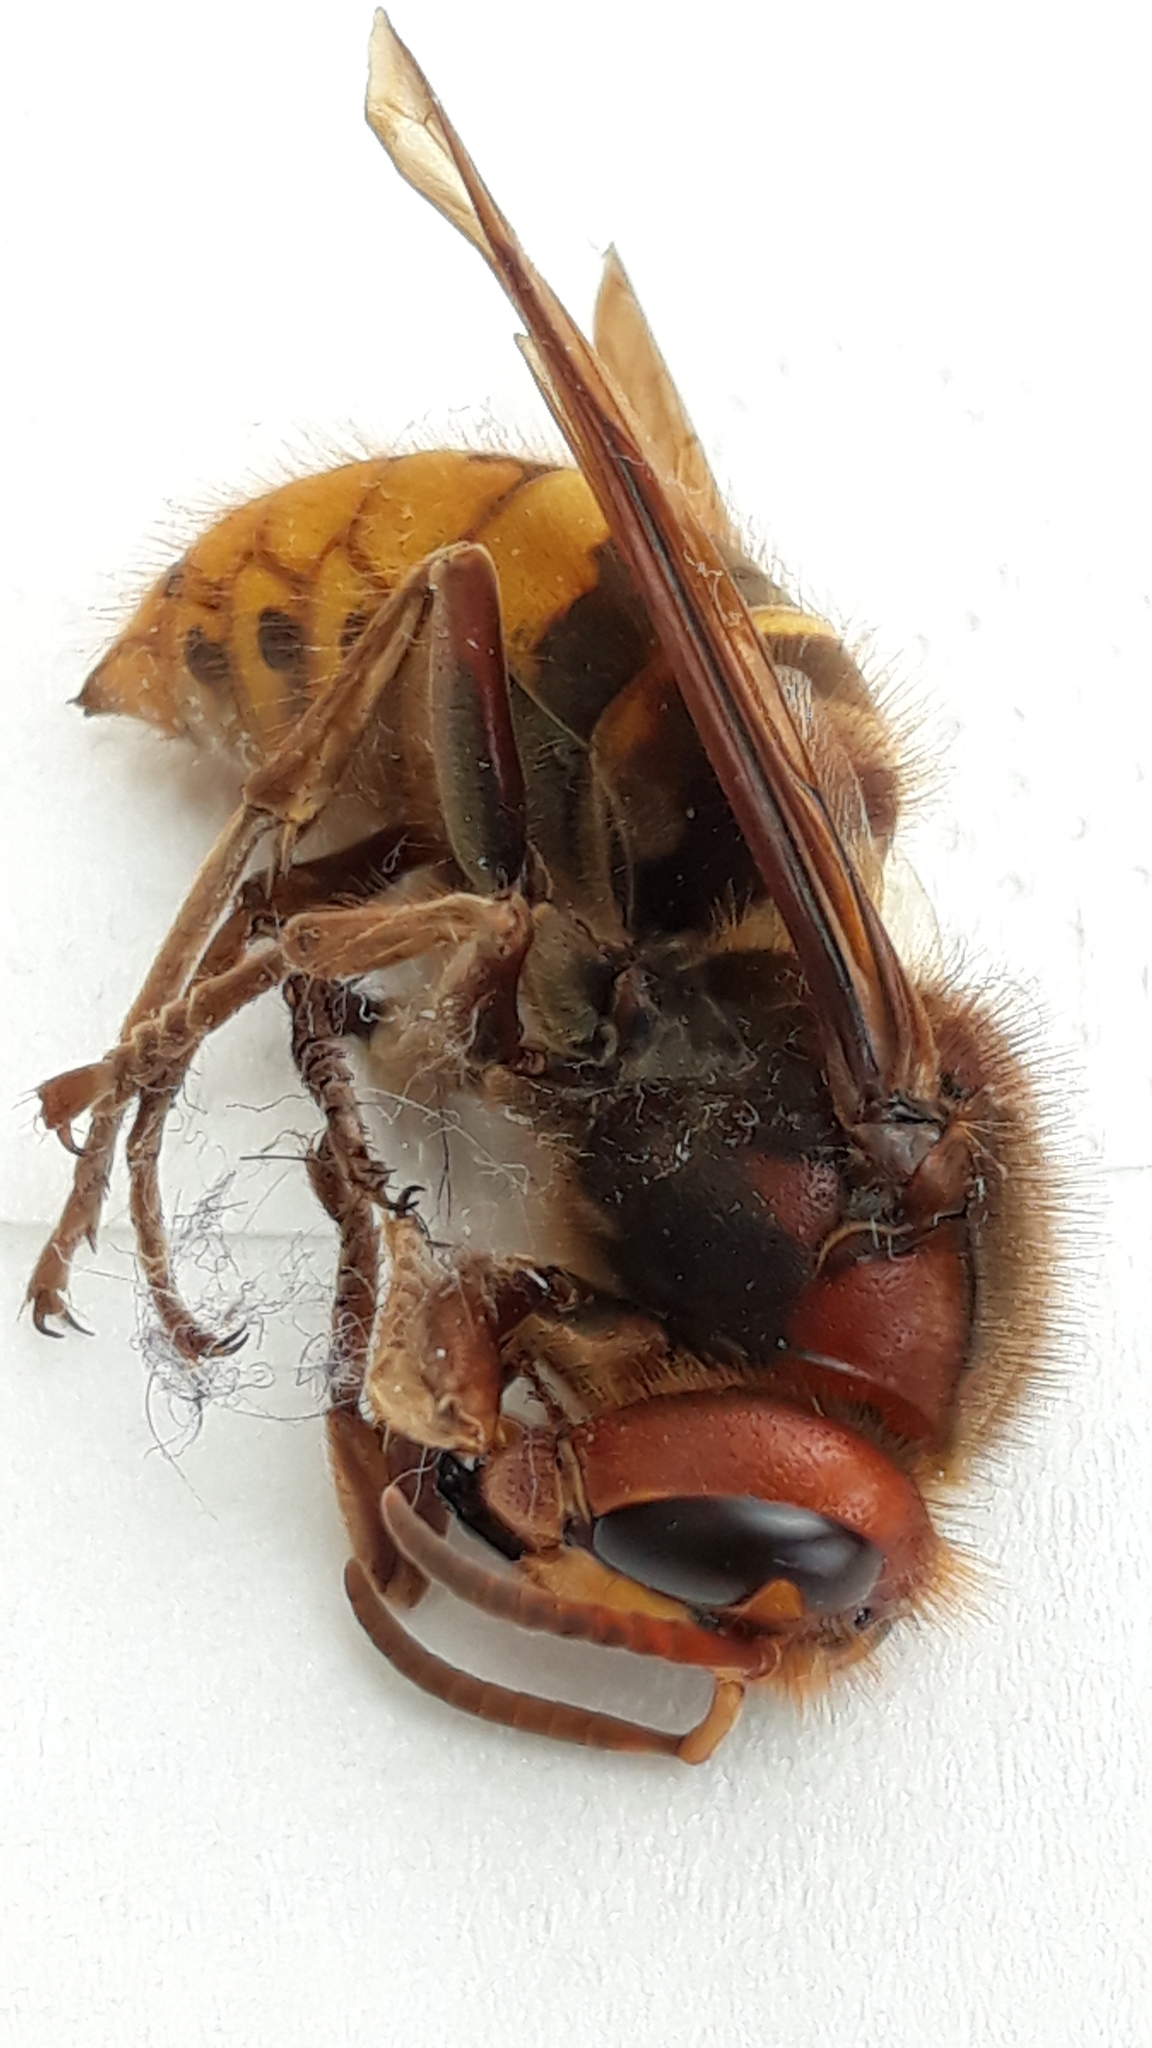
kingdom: Animalia
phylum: Arthropoda
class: Insecta
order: Hymenoptera
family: Vespidae
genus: Vespa
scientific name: Vespa crabro
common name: Hornet
